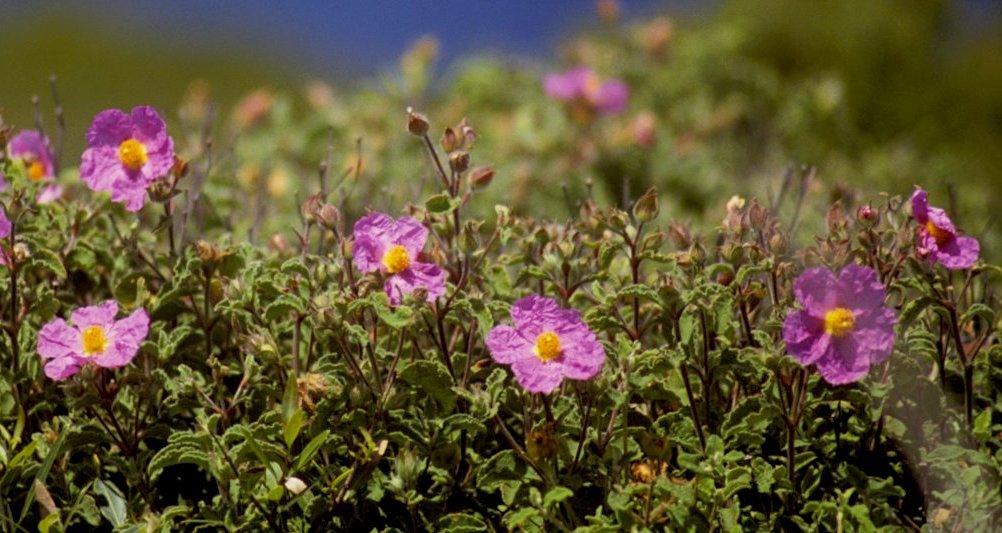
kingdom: Plantae
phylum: Tracheophyta
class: Magnoliopsida
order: Malvales
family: Cistaceae
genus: Cistus
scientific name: Cistus creticus
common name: Cretan rockrose
